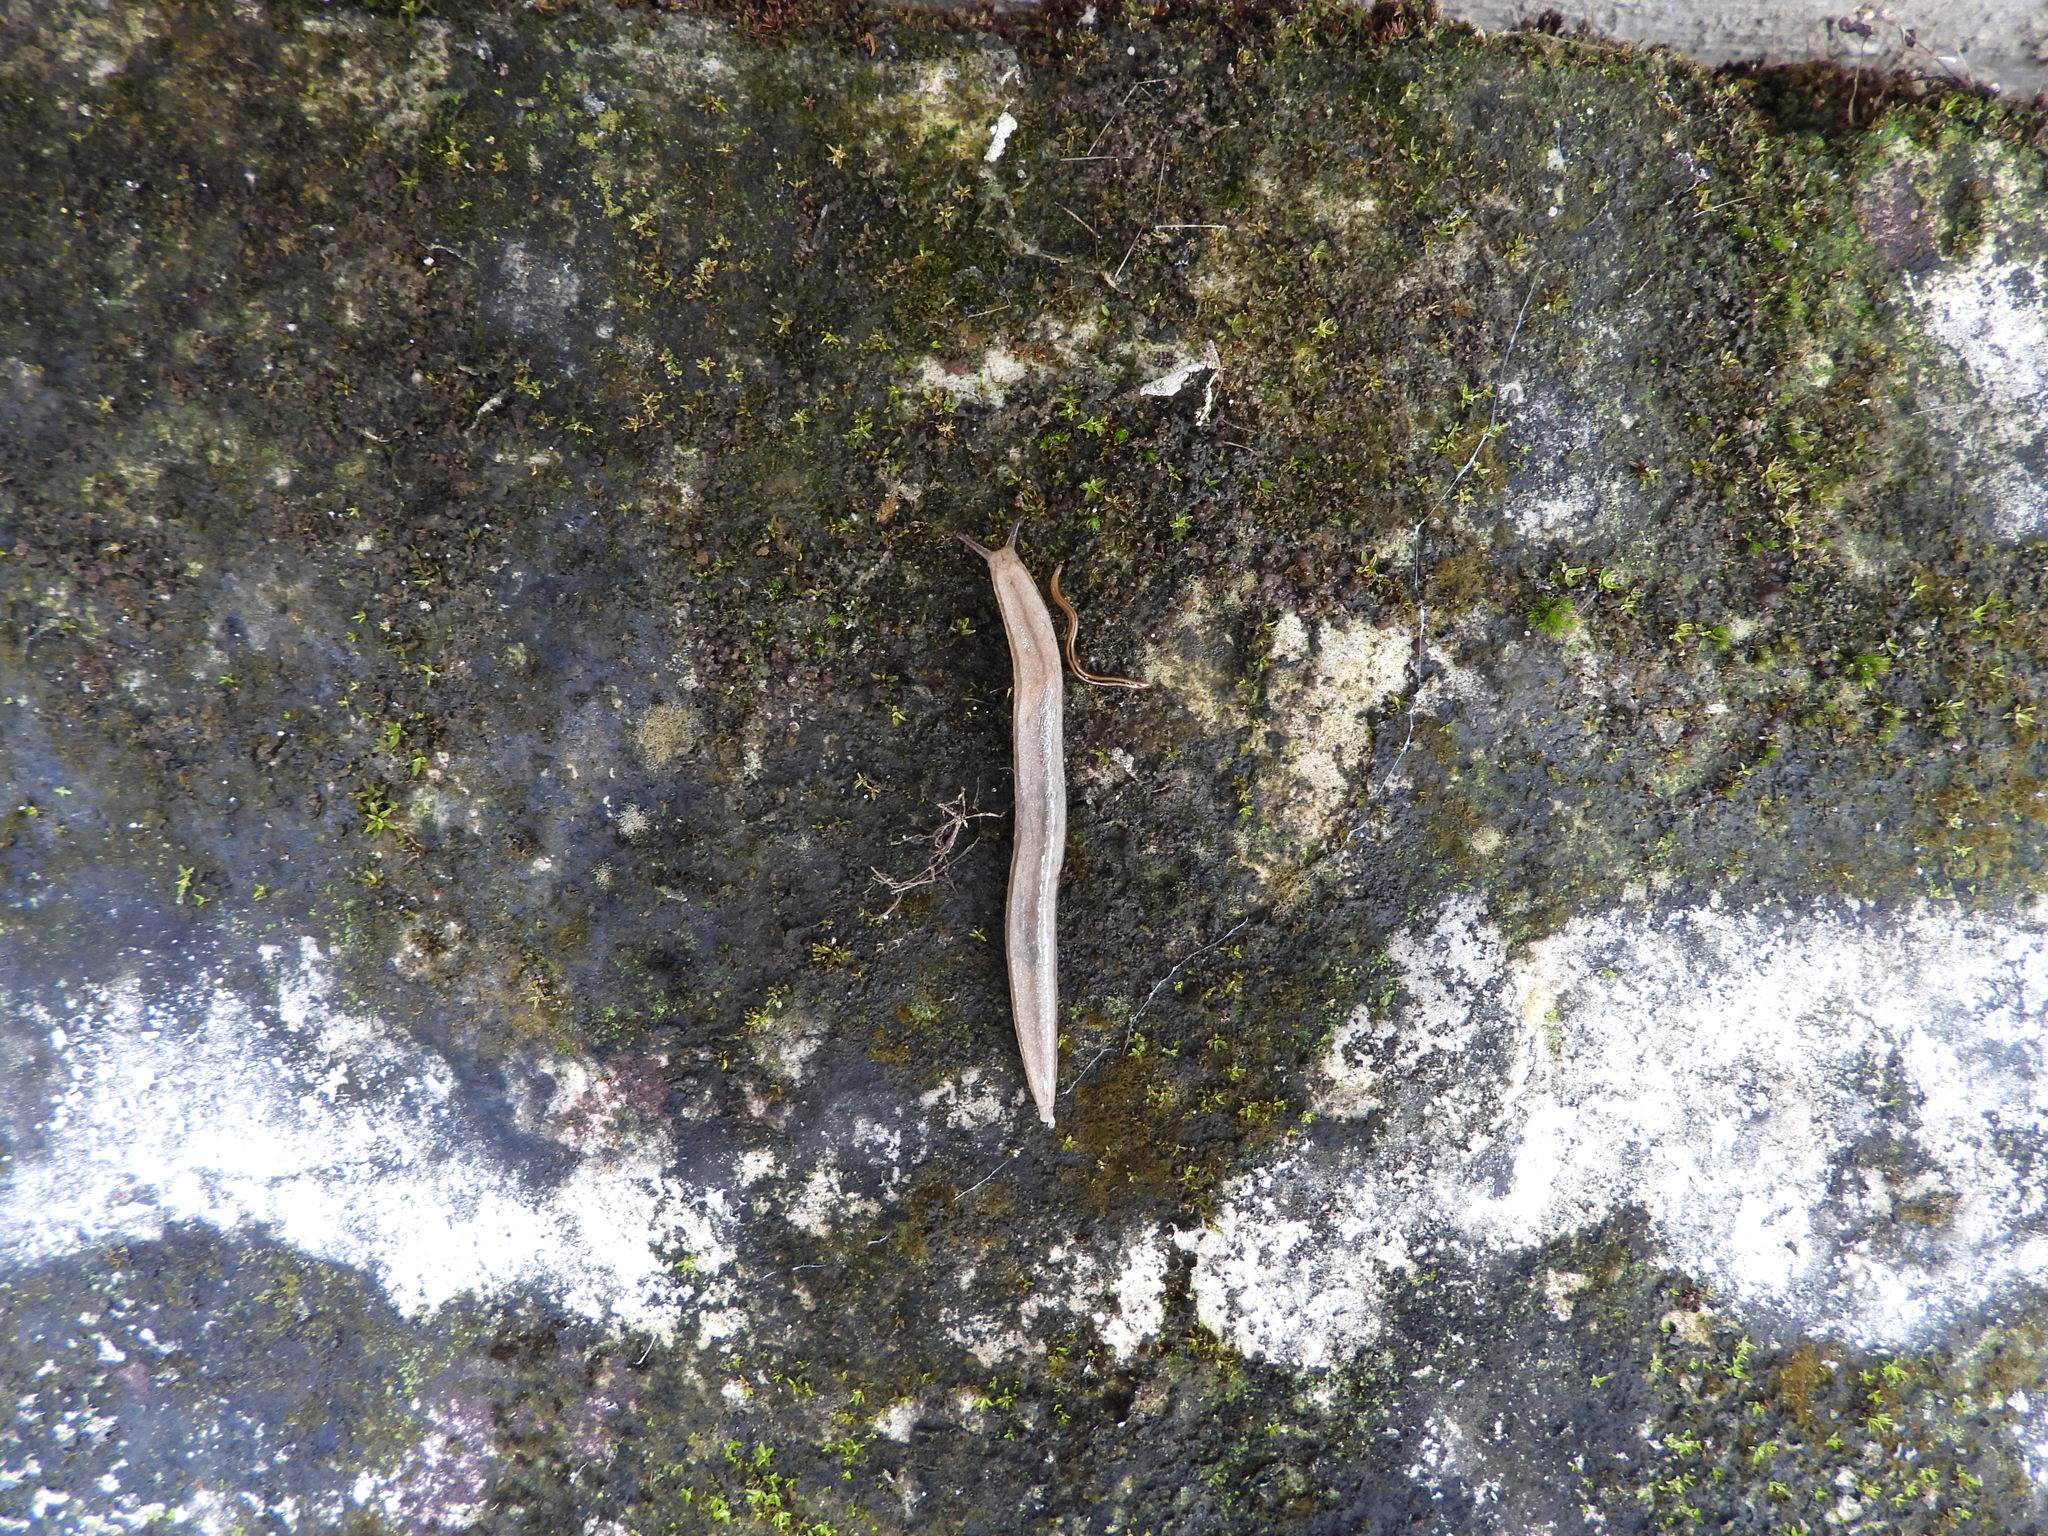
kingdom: Animalia
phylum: Mollusca
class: Gastropoda
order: Stylommatophora
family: Philomycidae
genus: Meghimatium
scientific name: Meghimatium bilineatum
